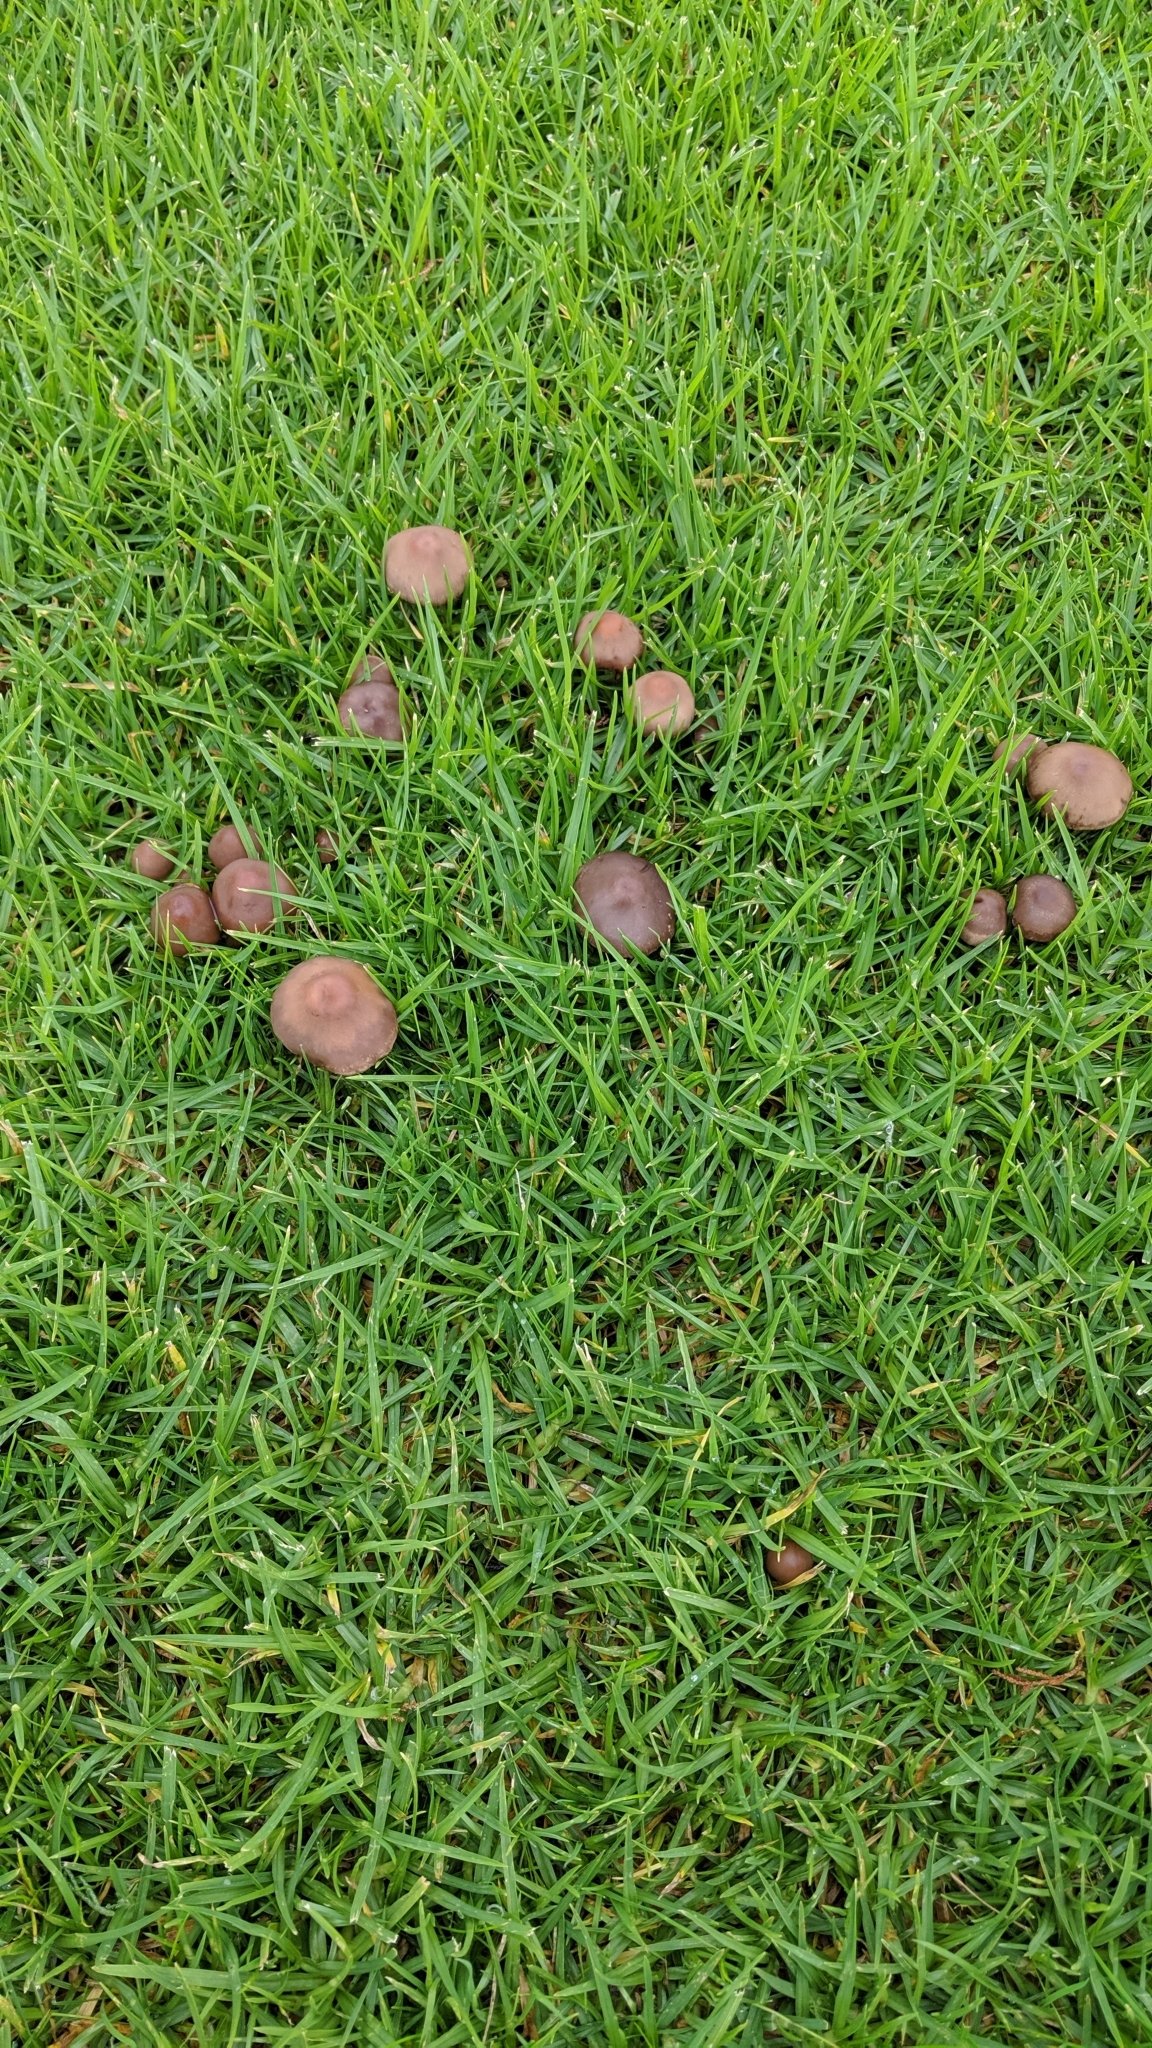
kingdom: Fungi
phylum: Basidiomycota
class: Agaricomycetes
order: Agaricales
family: Bolbitiaceae
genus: Panaeolina
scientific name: Panaeolina foenisecii
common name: Brown hay cap
